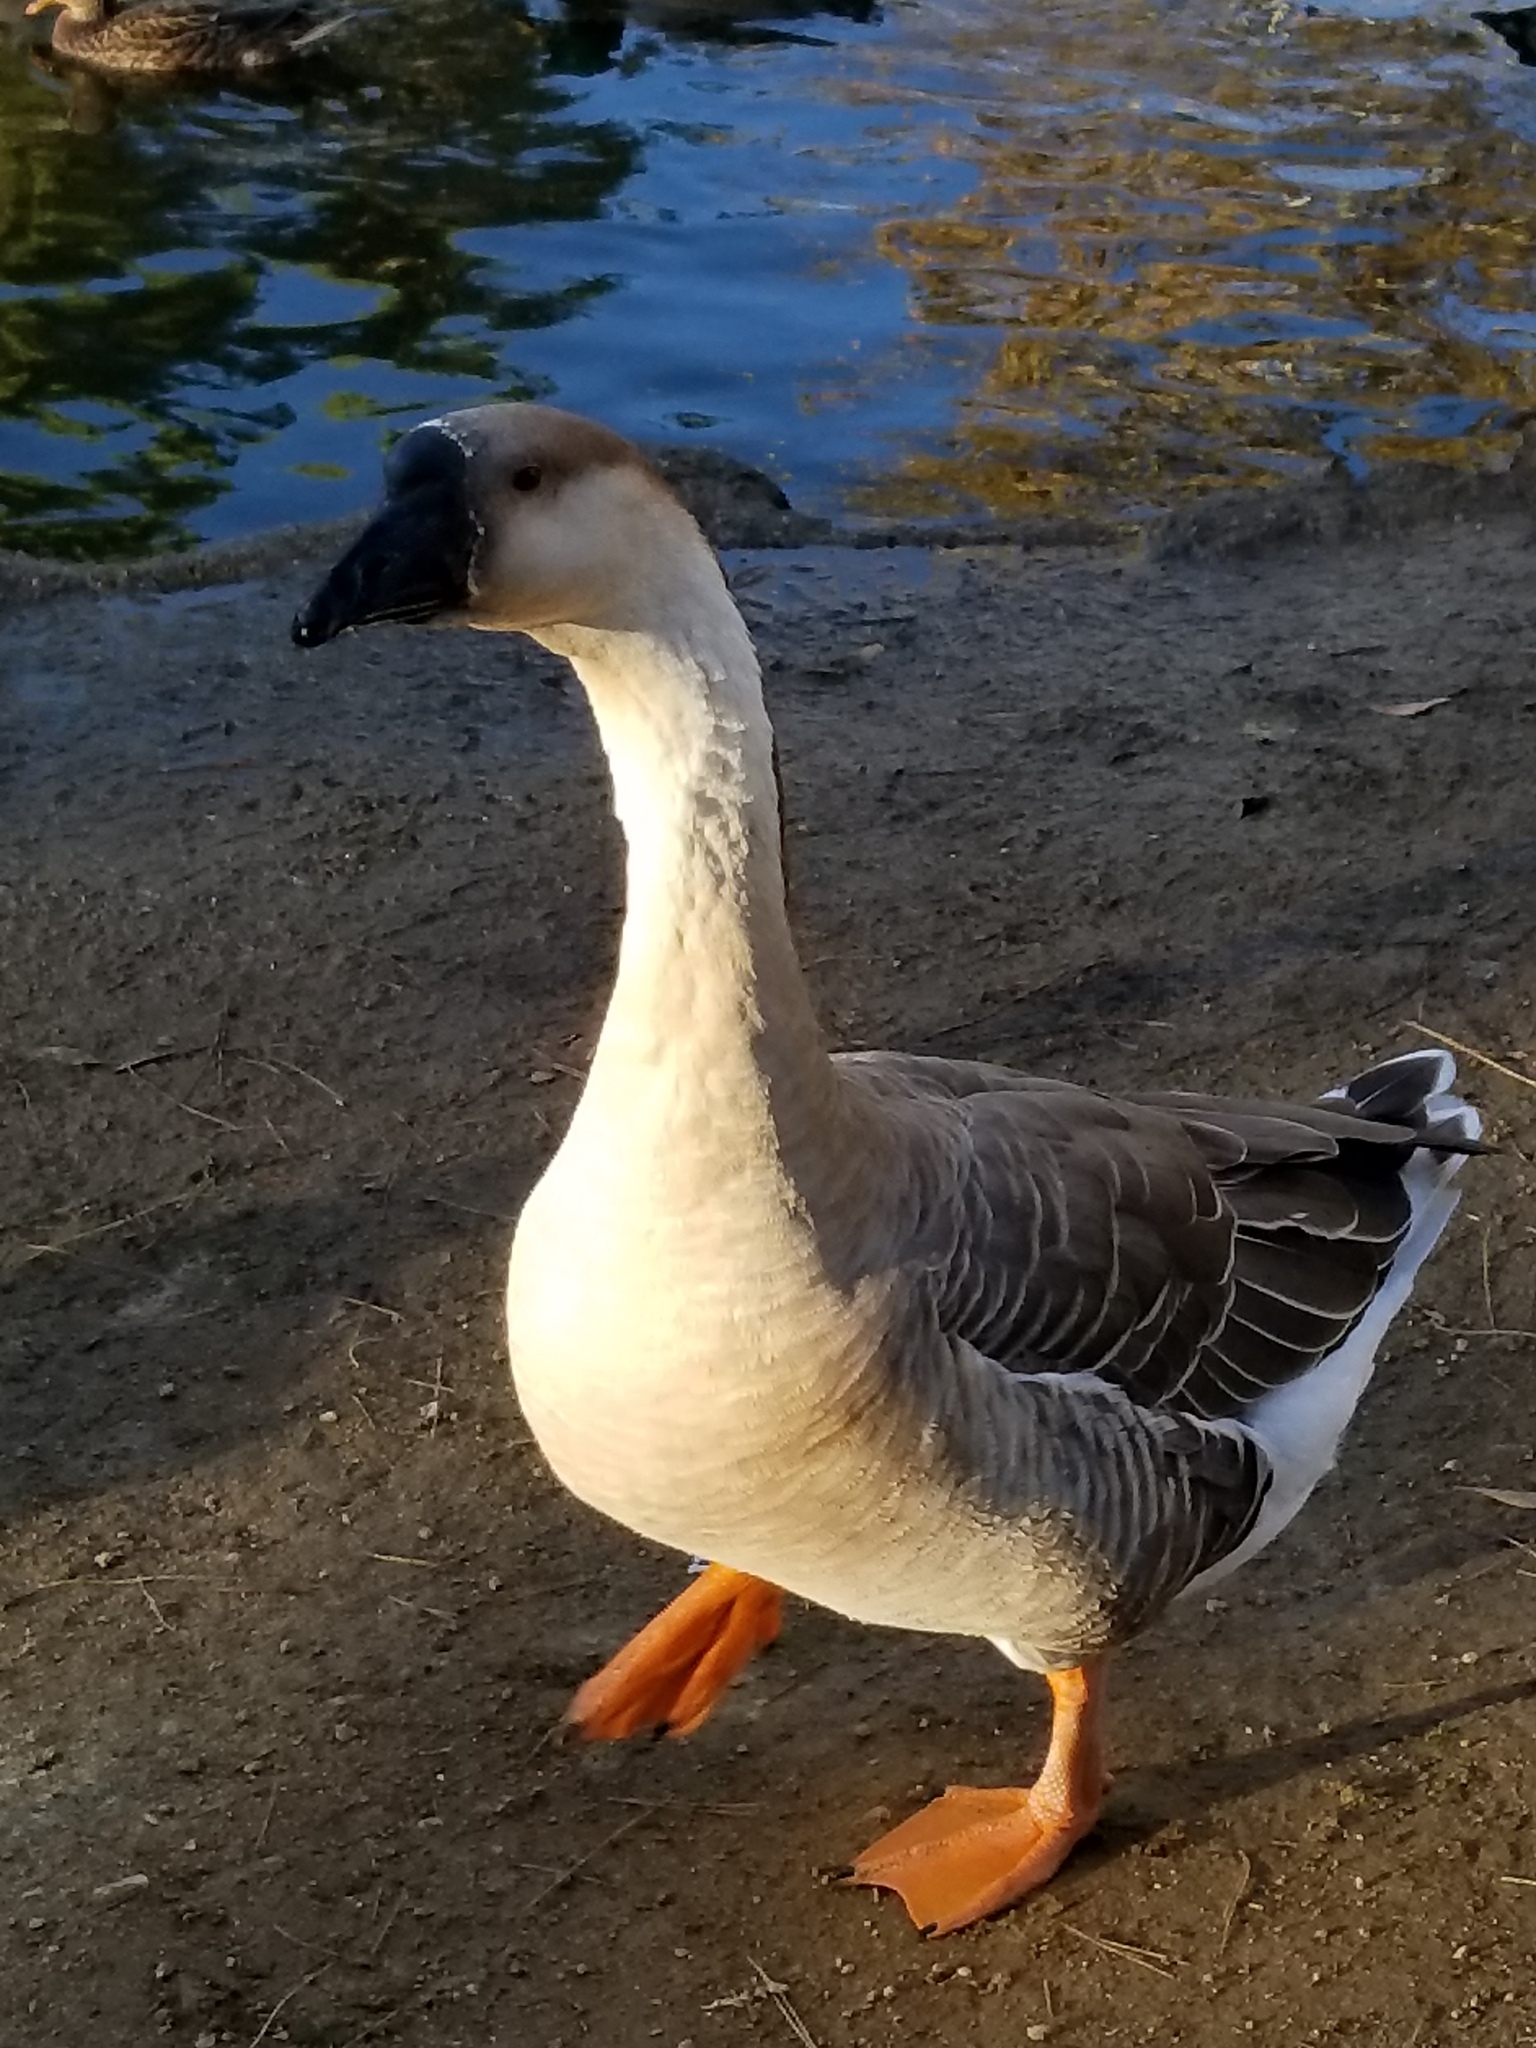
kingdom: Animalia
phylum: Chordata
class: Aves
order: Anseriformes
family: Anatidae
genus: Anser
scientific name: Anser cygnoides
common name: Swan goose
